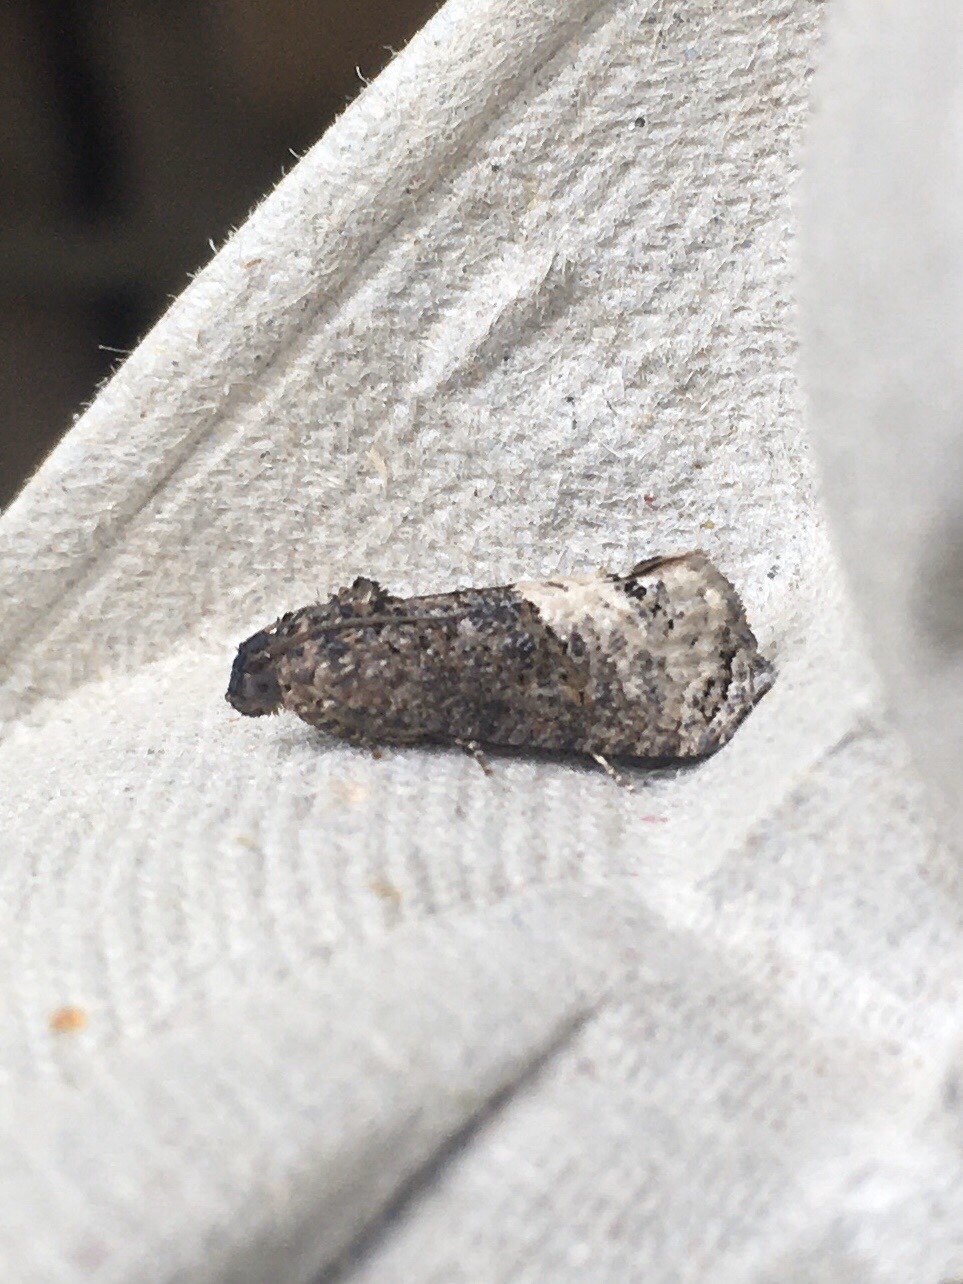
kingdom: Animalia
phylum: Arthropoda
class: Insecta
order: Lepidoptera
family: Tortricidae
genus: Ecdytolopha
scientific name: Ecdytolopha insiticiana
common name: Locust twig borer moth
